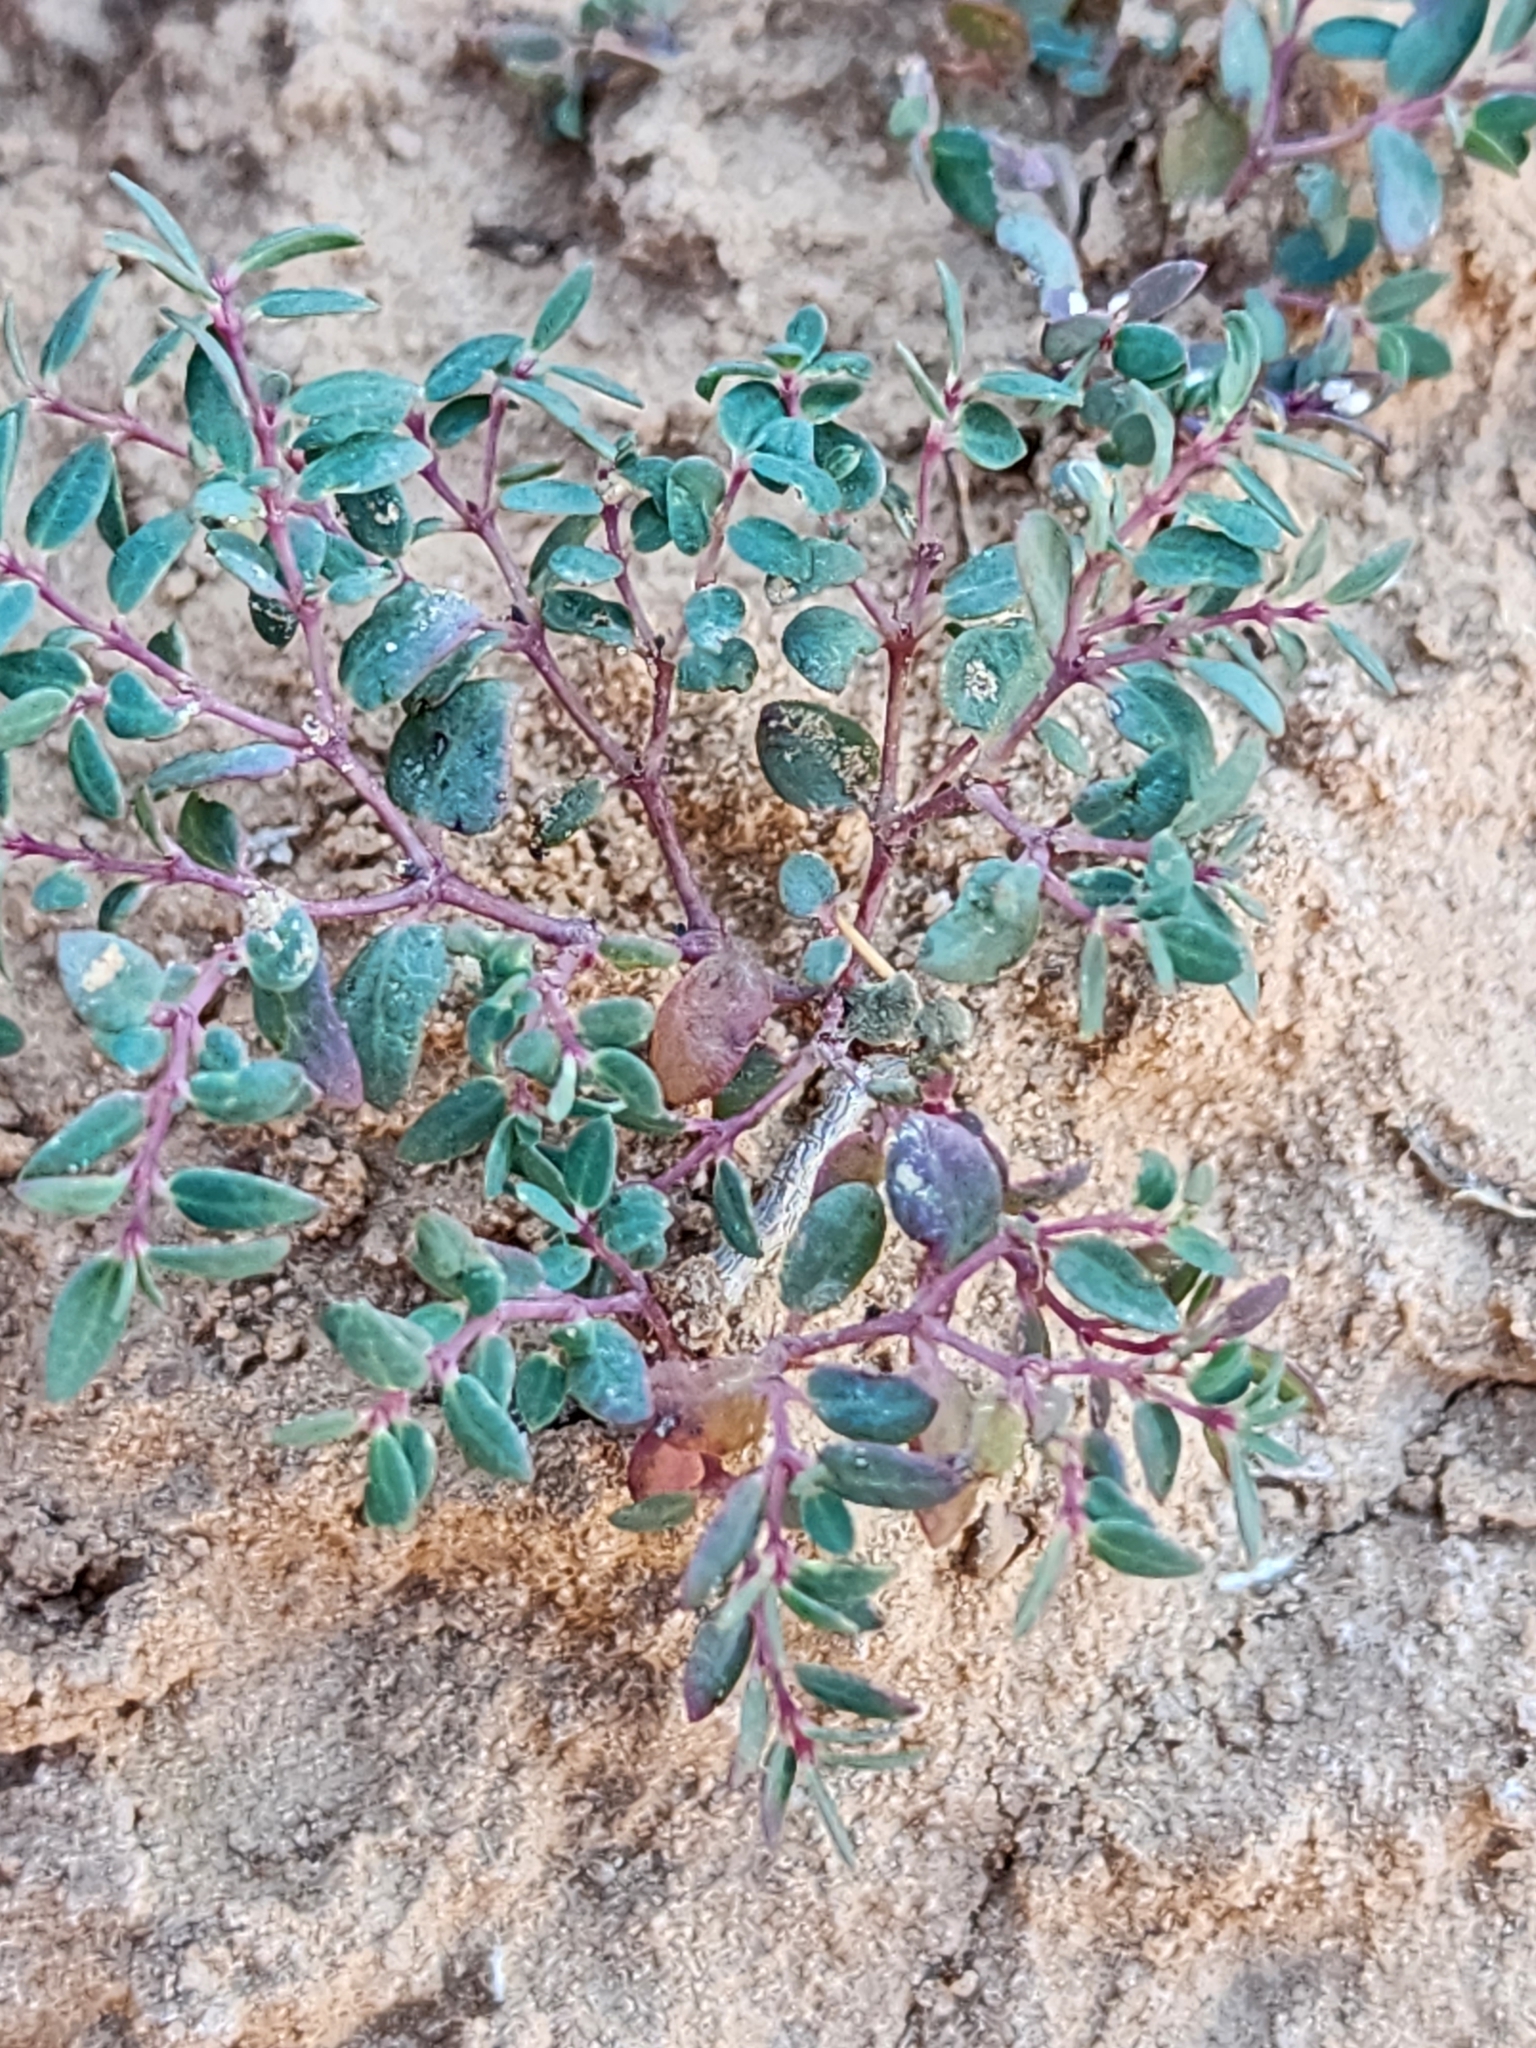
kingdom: Plantae
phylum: Tracheophyta
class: Magnoliopsida
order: Malpighiales
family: Euphorbiaceae
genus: Euphorbia
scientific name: Euphorbia fendleri
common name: Fendler's euphorbia
